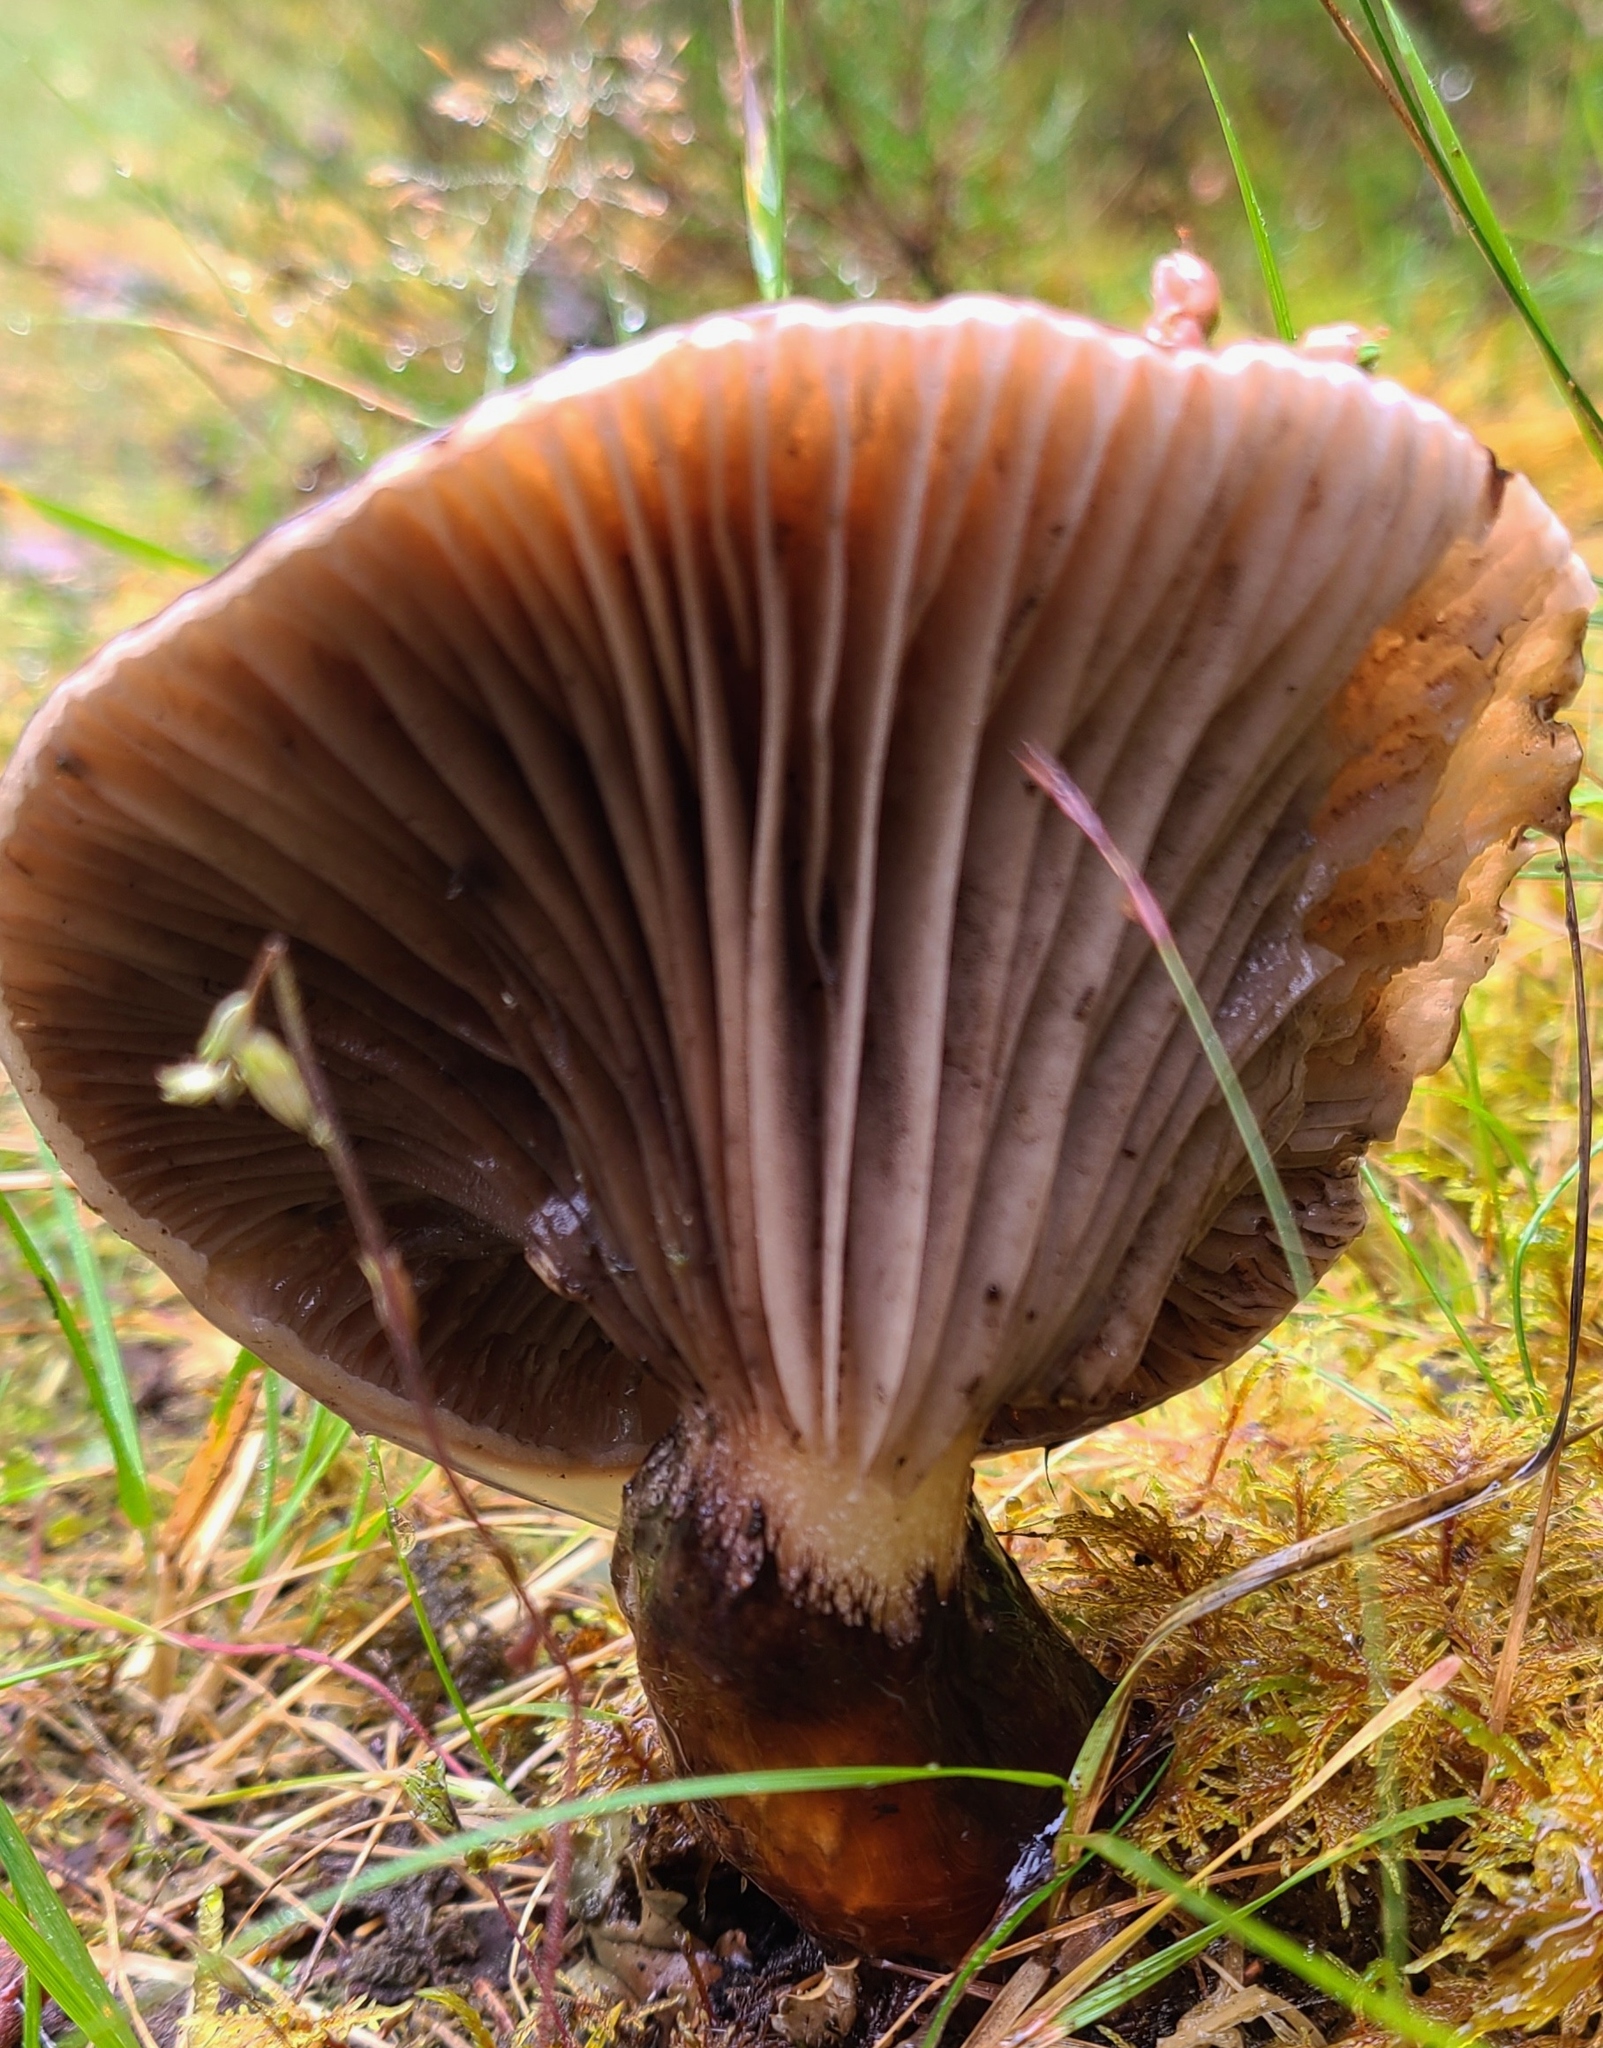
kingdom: Fungi
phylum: Basidiomycota
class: Agaricomycetes
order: Boletales
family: Gomphidiaceae
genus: Gomphidius
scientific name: Gomphidius glutinosus
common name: Slimy spike
